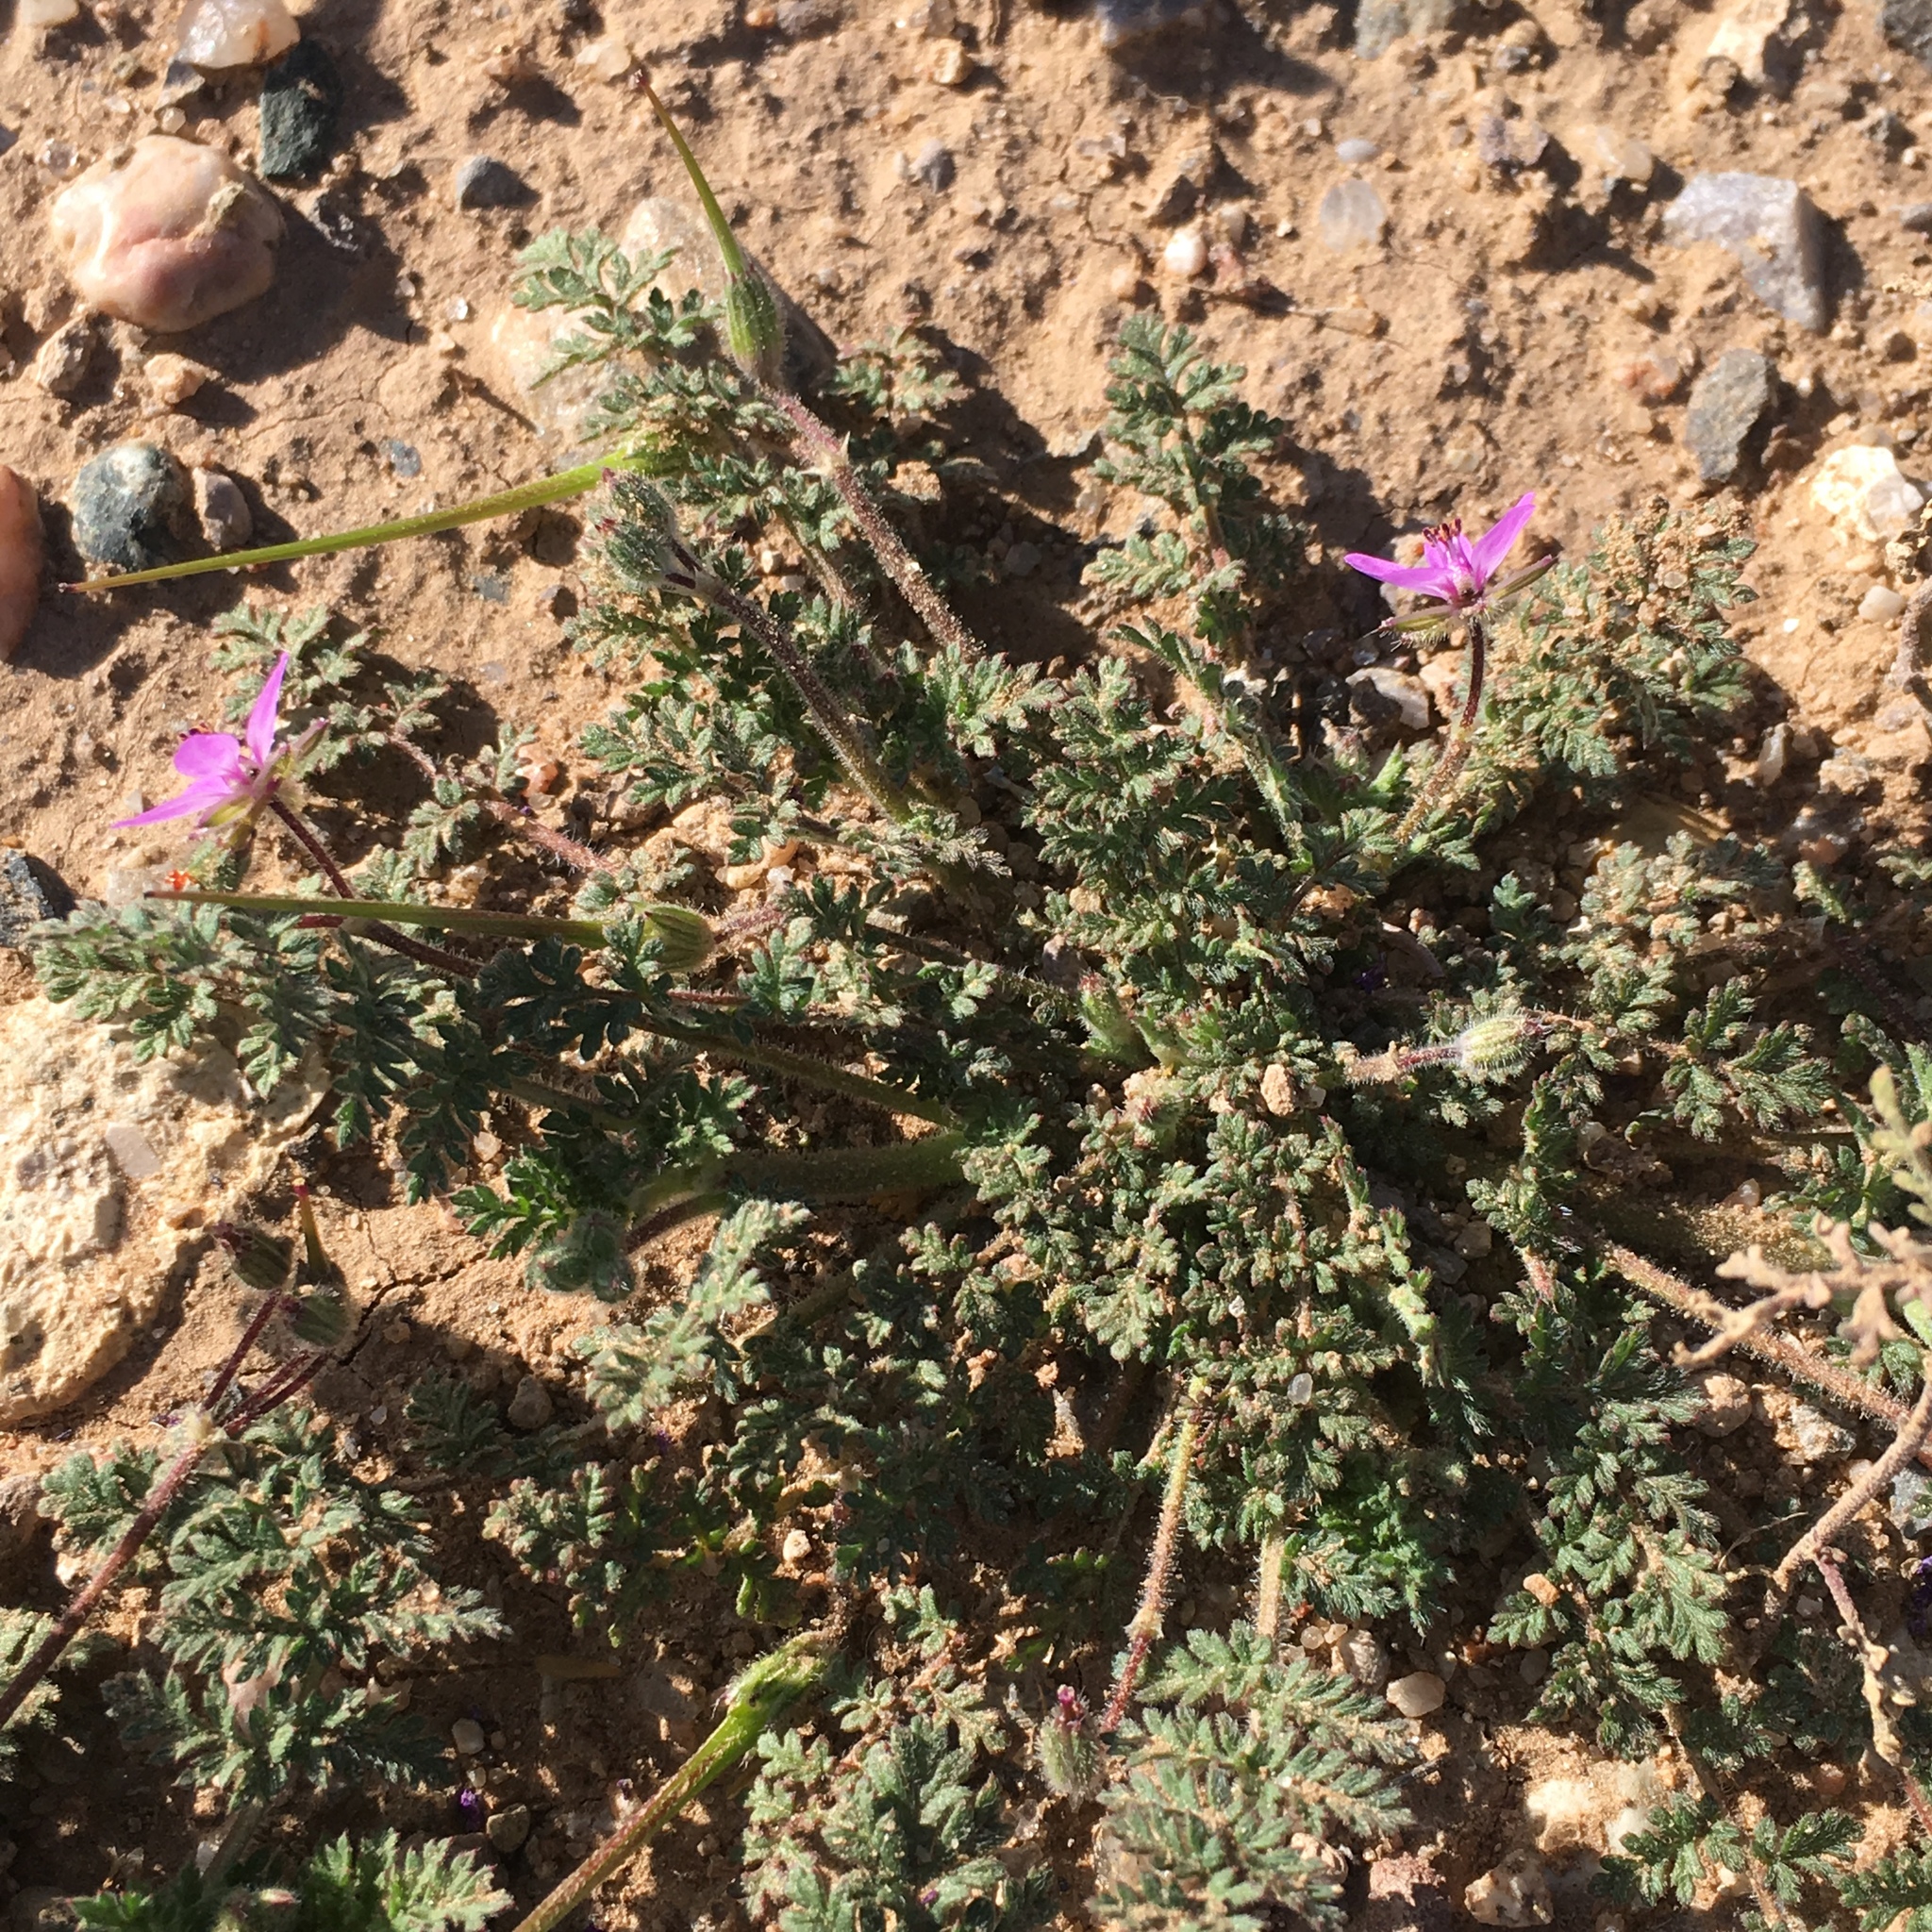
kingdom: Plantae
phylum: Tracheophyta
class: Magnoliopsida
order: Geraniales
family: Geraniaceae
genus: Erodium
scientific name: Erodium cicutarium
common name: Common stork's-bill
